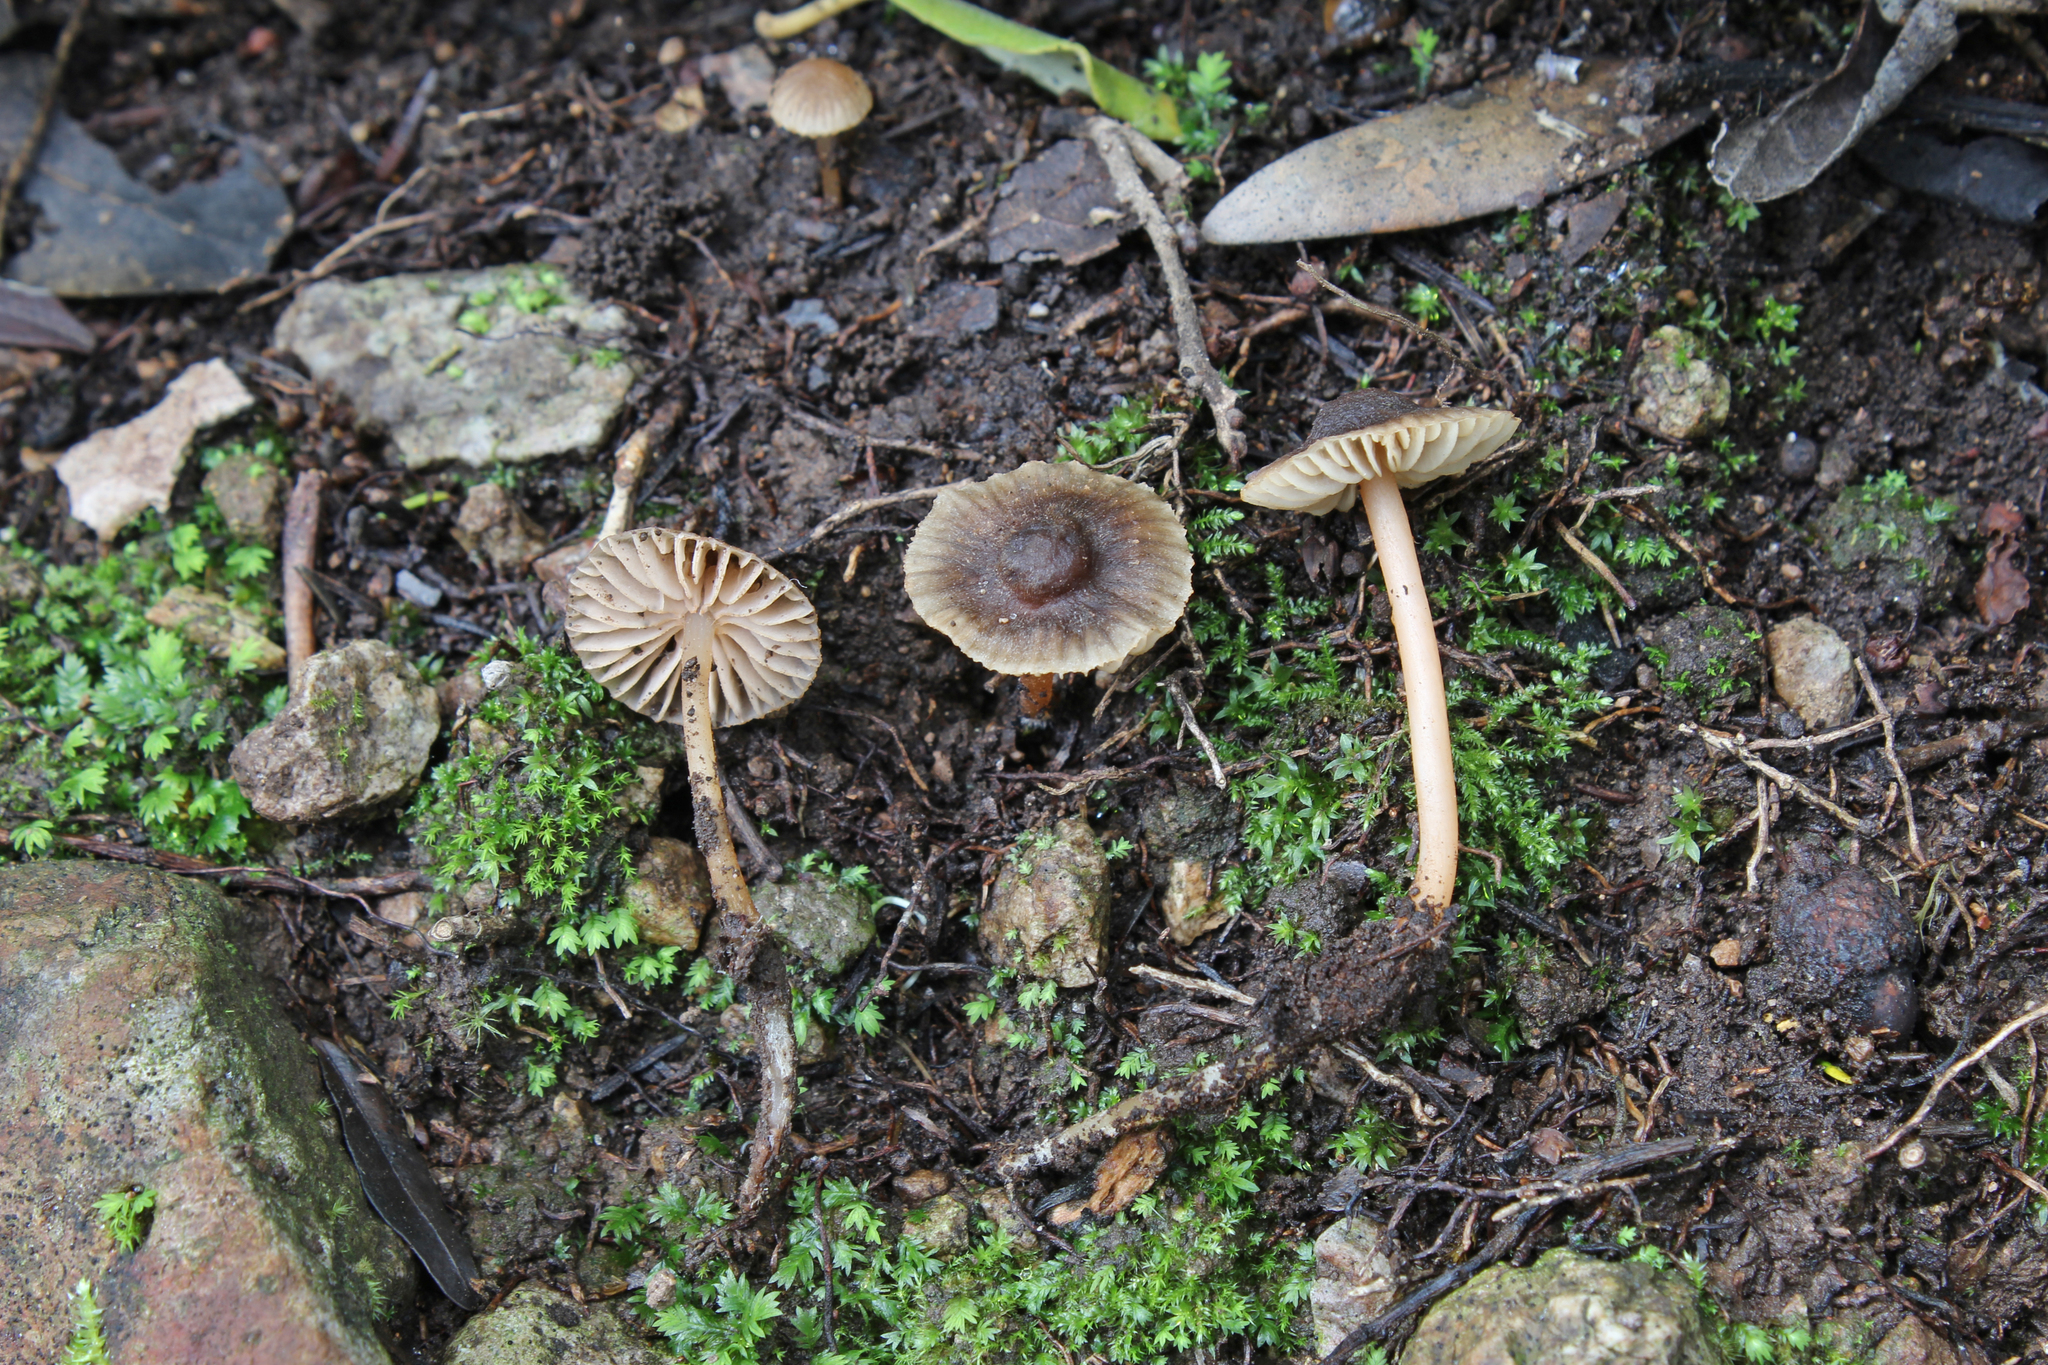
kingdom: Fungi
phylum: Basidiomycota
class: Agaricomycetes
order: Agaricales
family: Mycenaceae
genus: Mycena
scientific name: Mycena olivaceomarginata
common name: Brownedge bonnet
